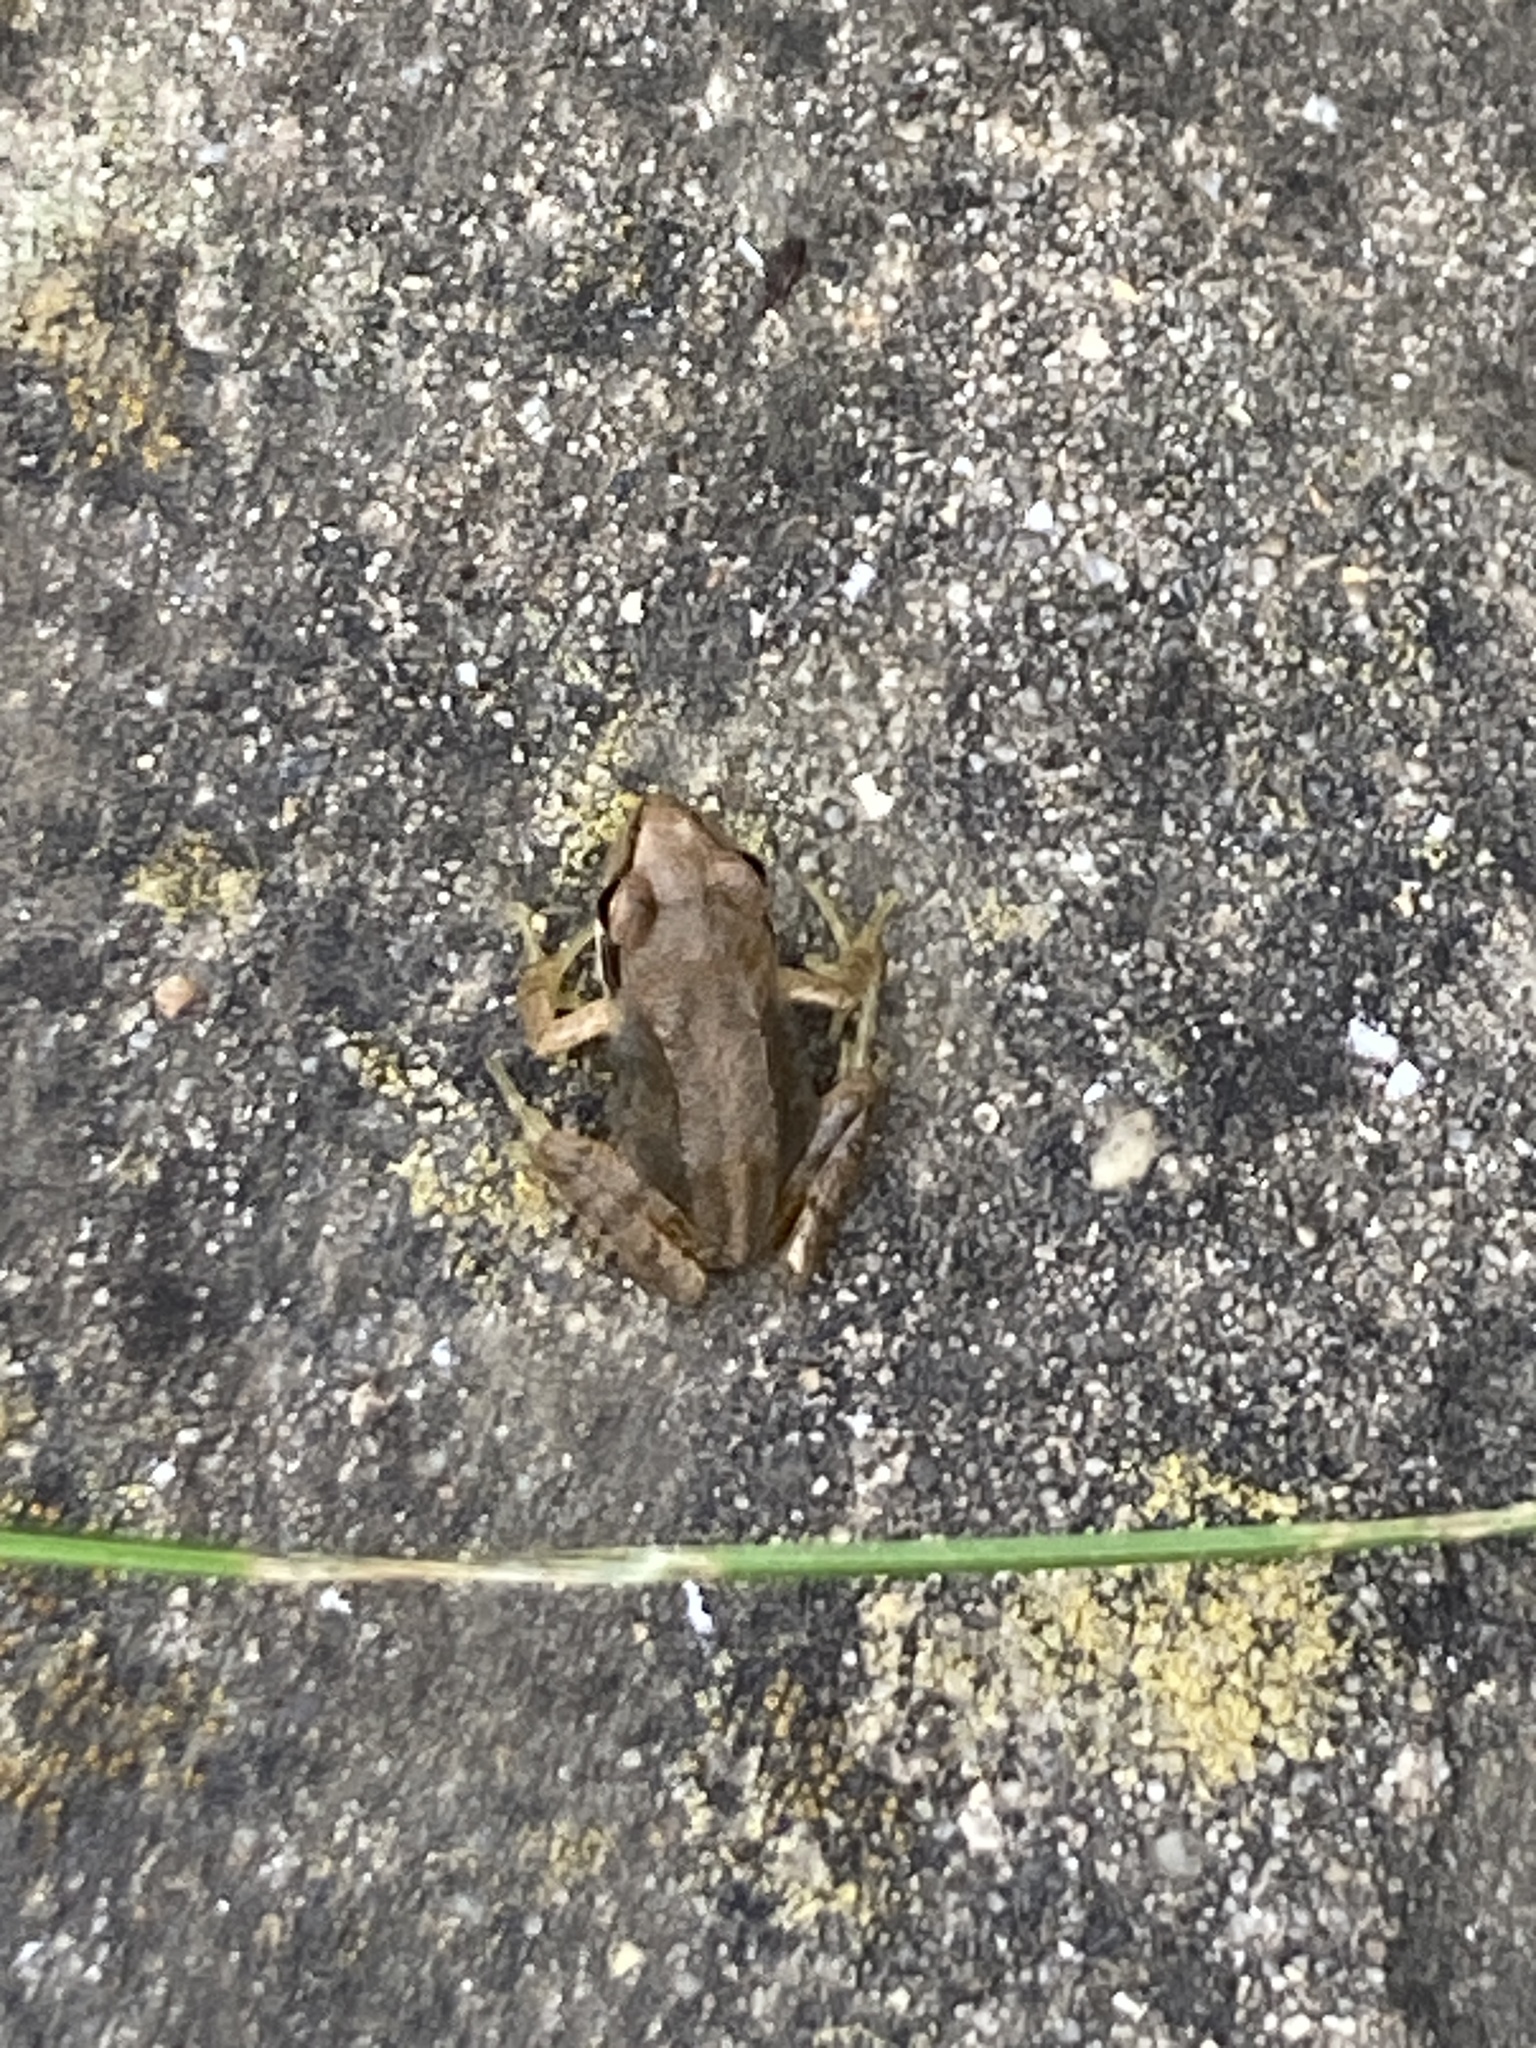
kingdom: Animalia
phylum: Chordata
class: Amphibia
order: Anura
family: Ranidae
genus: Rana
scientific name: Rana temporaria
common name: Common frog
